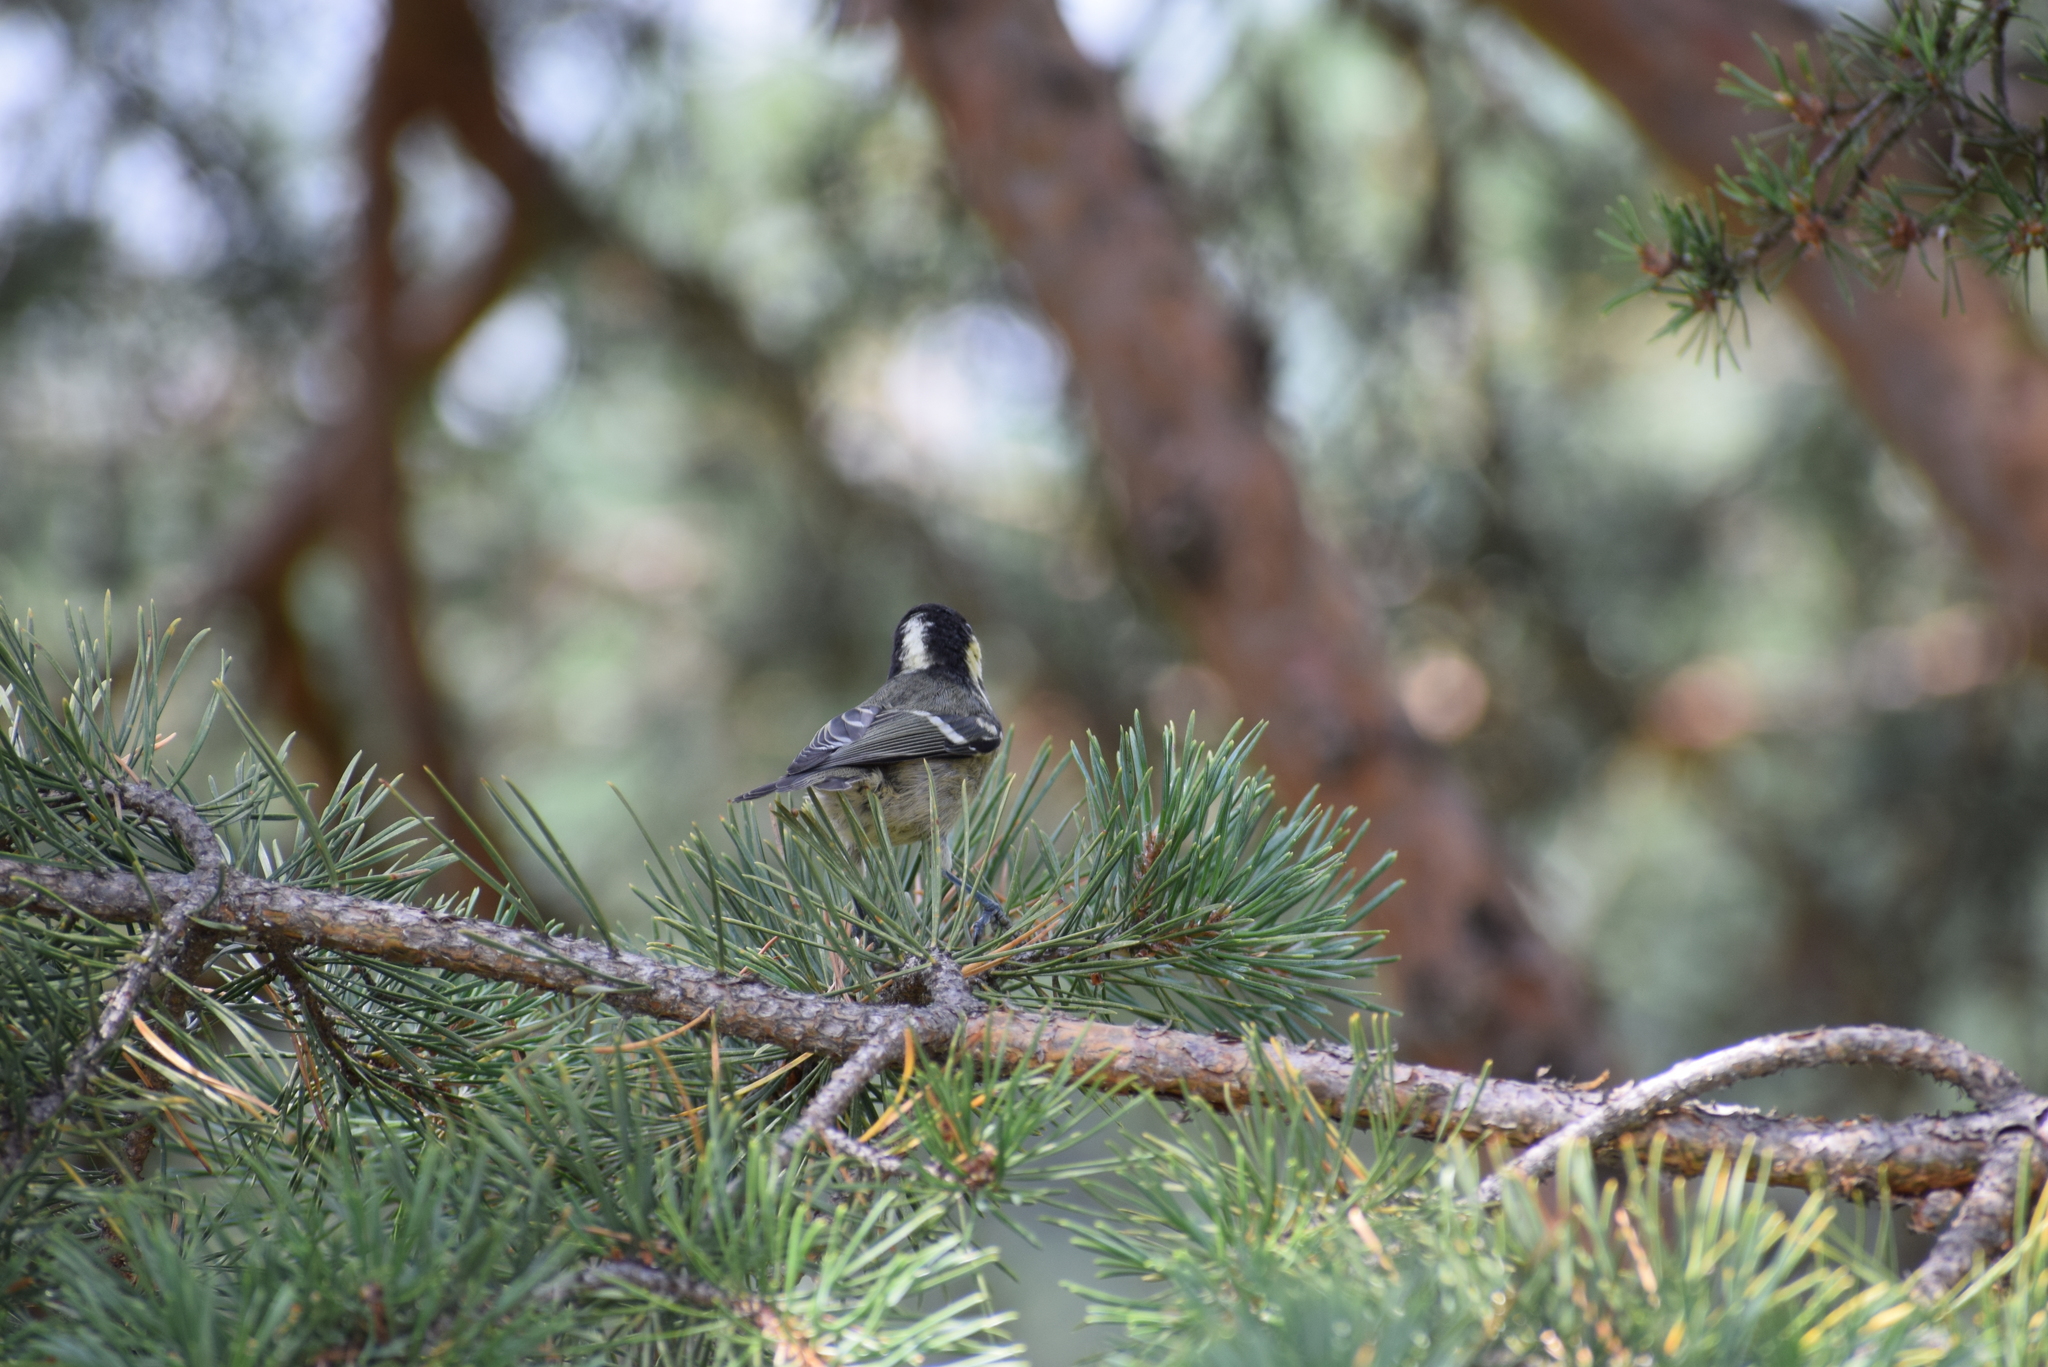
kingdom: Animalia
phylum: Chordata
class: Aves
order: Passeriformes
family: Paridae
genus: Periparus
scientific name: Periparus ater
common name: Coal tit
